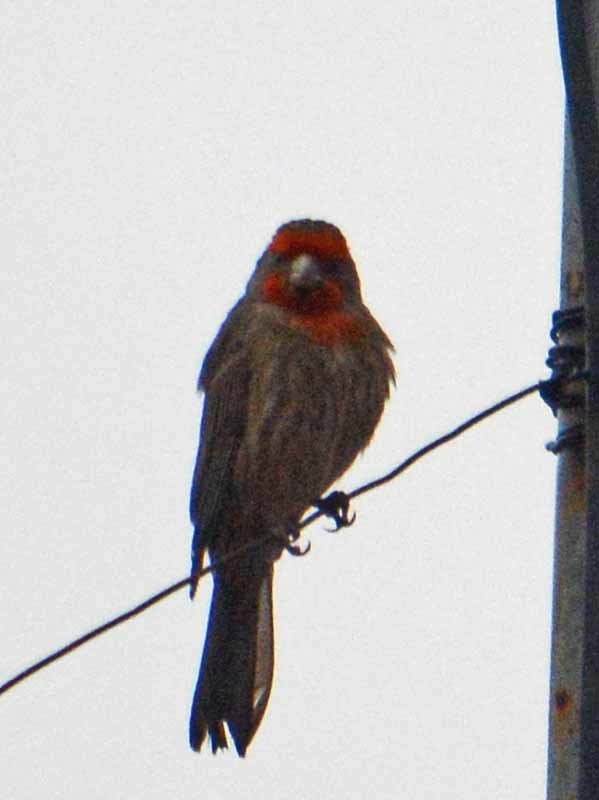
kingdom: Animalia
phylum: Chordata
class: Aves
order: Passeriformes
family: Fringillidae
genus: Haemorhous
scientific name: Haemorhous mexicanus
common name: House finch
